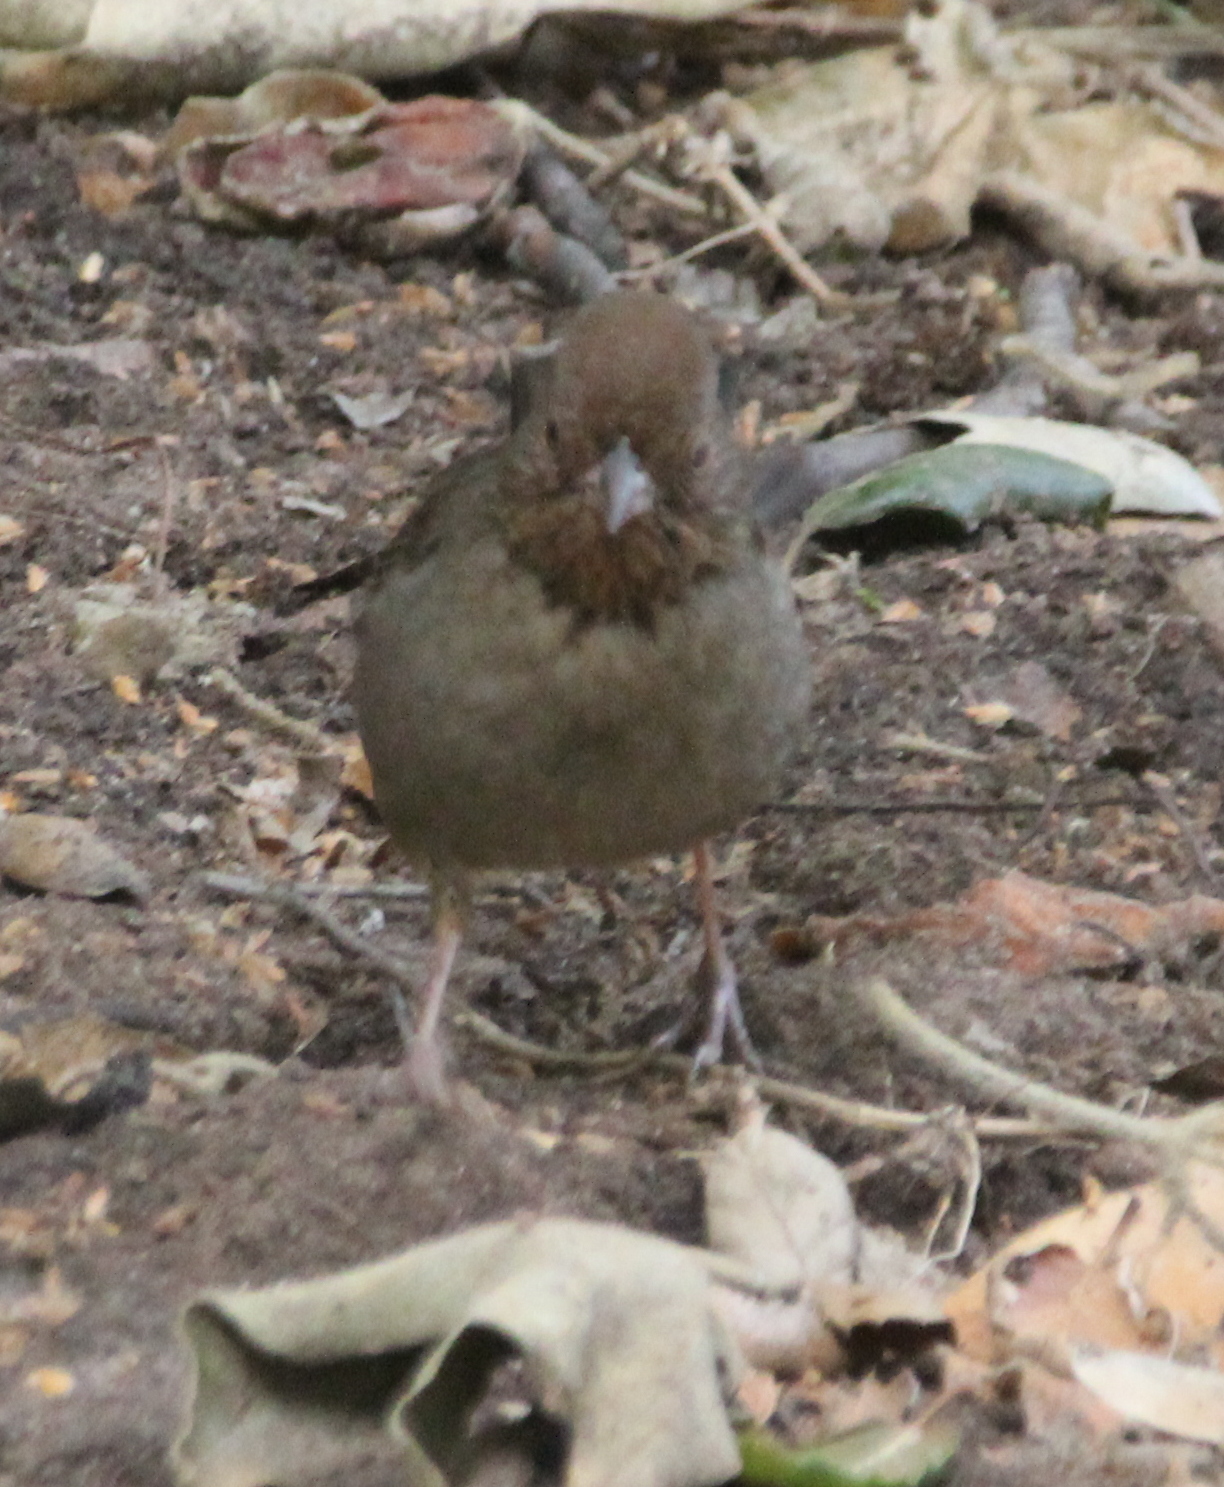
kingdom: Animalia
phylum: Chordata
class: Aves
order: Passeriformes
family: Passerellidae
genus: Melozone
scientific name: Melozone crissalis
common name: California towhee
